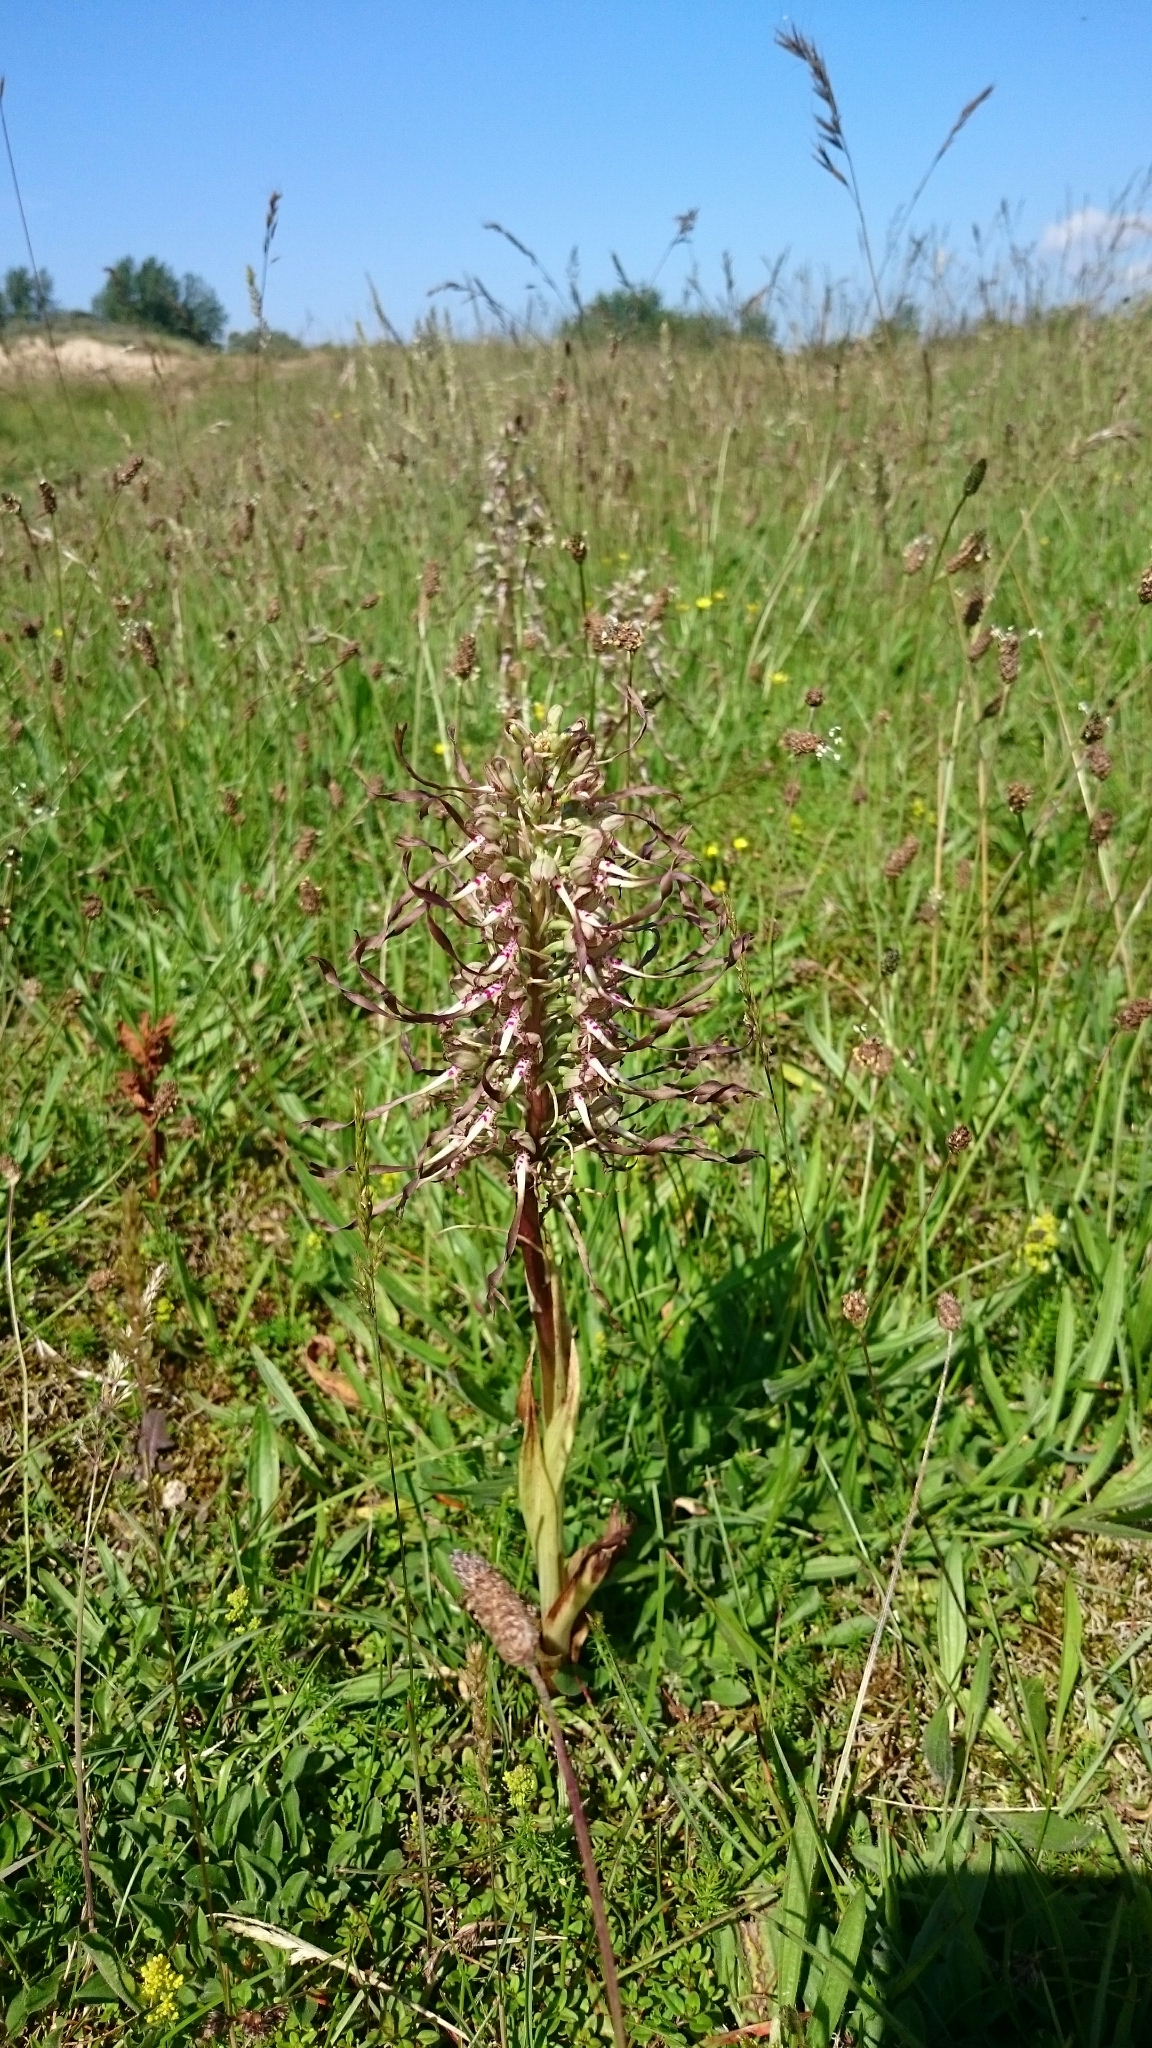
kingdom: Plantae
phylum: Tracheophyta
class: Liliopsida
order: Asparagales
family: Orchidaceae
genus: Himantoglossum
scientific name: Himantoglossum hircinum
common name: Lizard orchid
